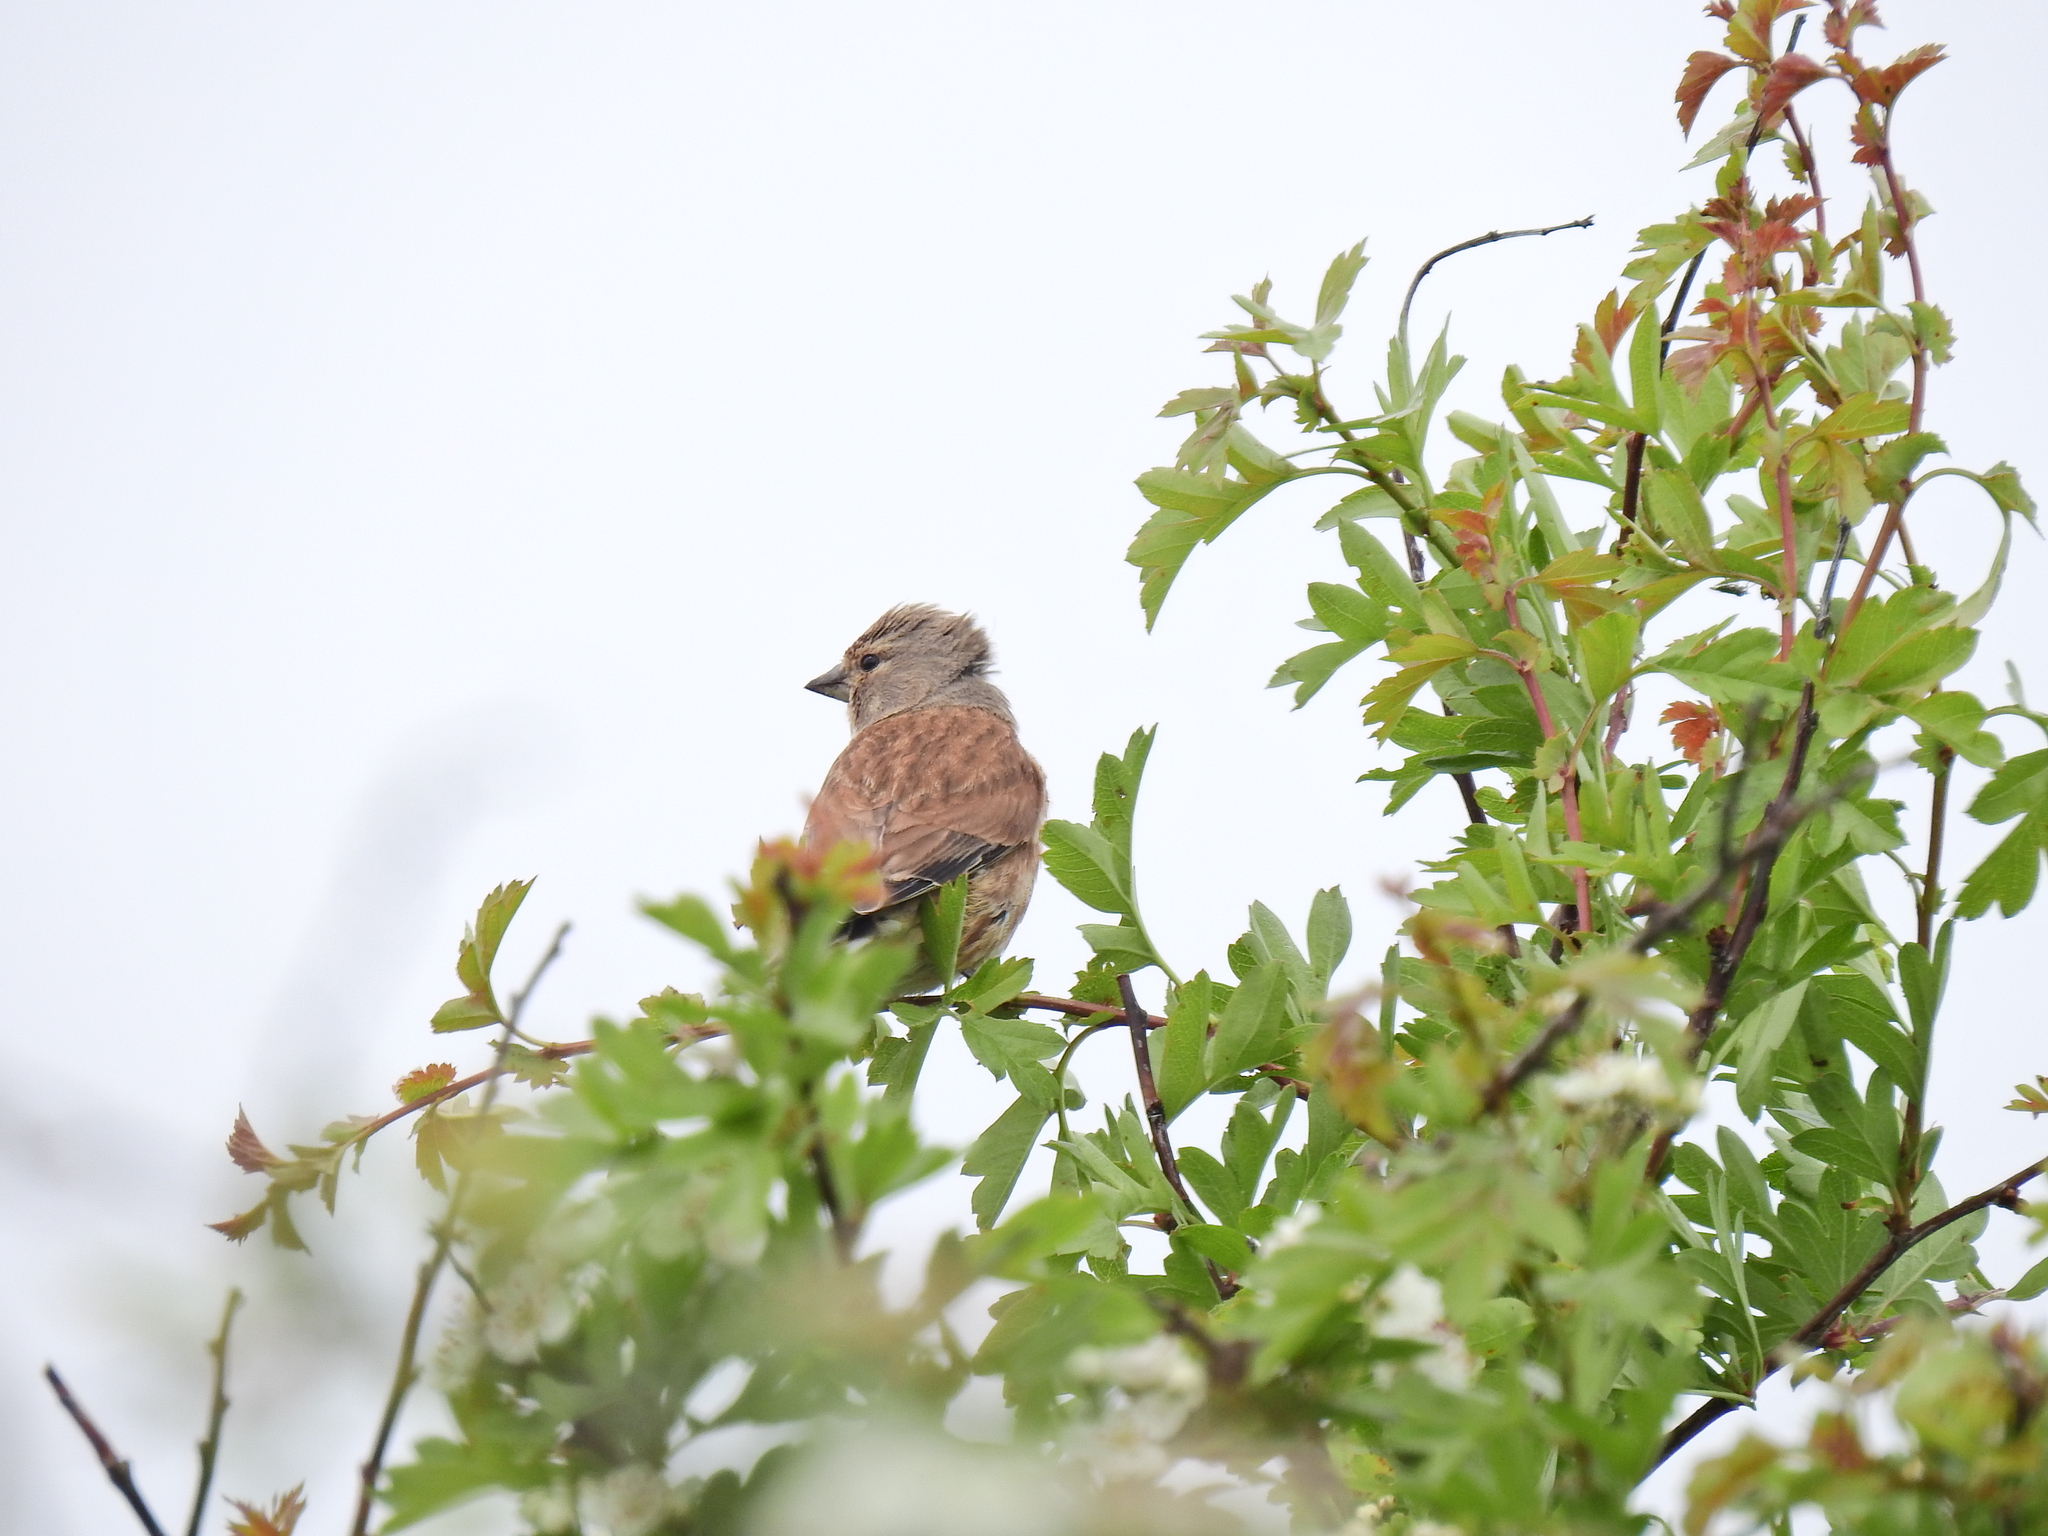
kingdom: Animalia
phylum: Chordata
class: Aves
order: Passeriformes
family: Fringillidae
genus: Linaria
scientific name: Linaria cannabina
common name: Common linnet
